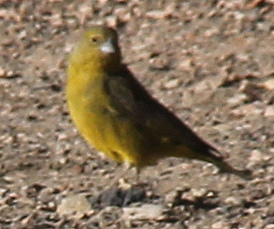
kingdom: Animalia
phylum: Chordata
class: Aves
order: Passeriformes
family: Thraupidae
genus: Sicalis
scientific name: Sicalis olivascens
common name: Greenish yellow finch
